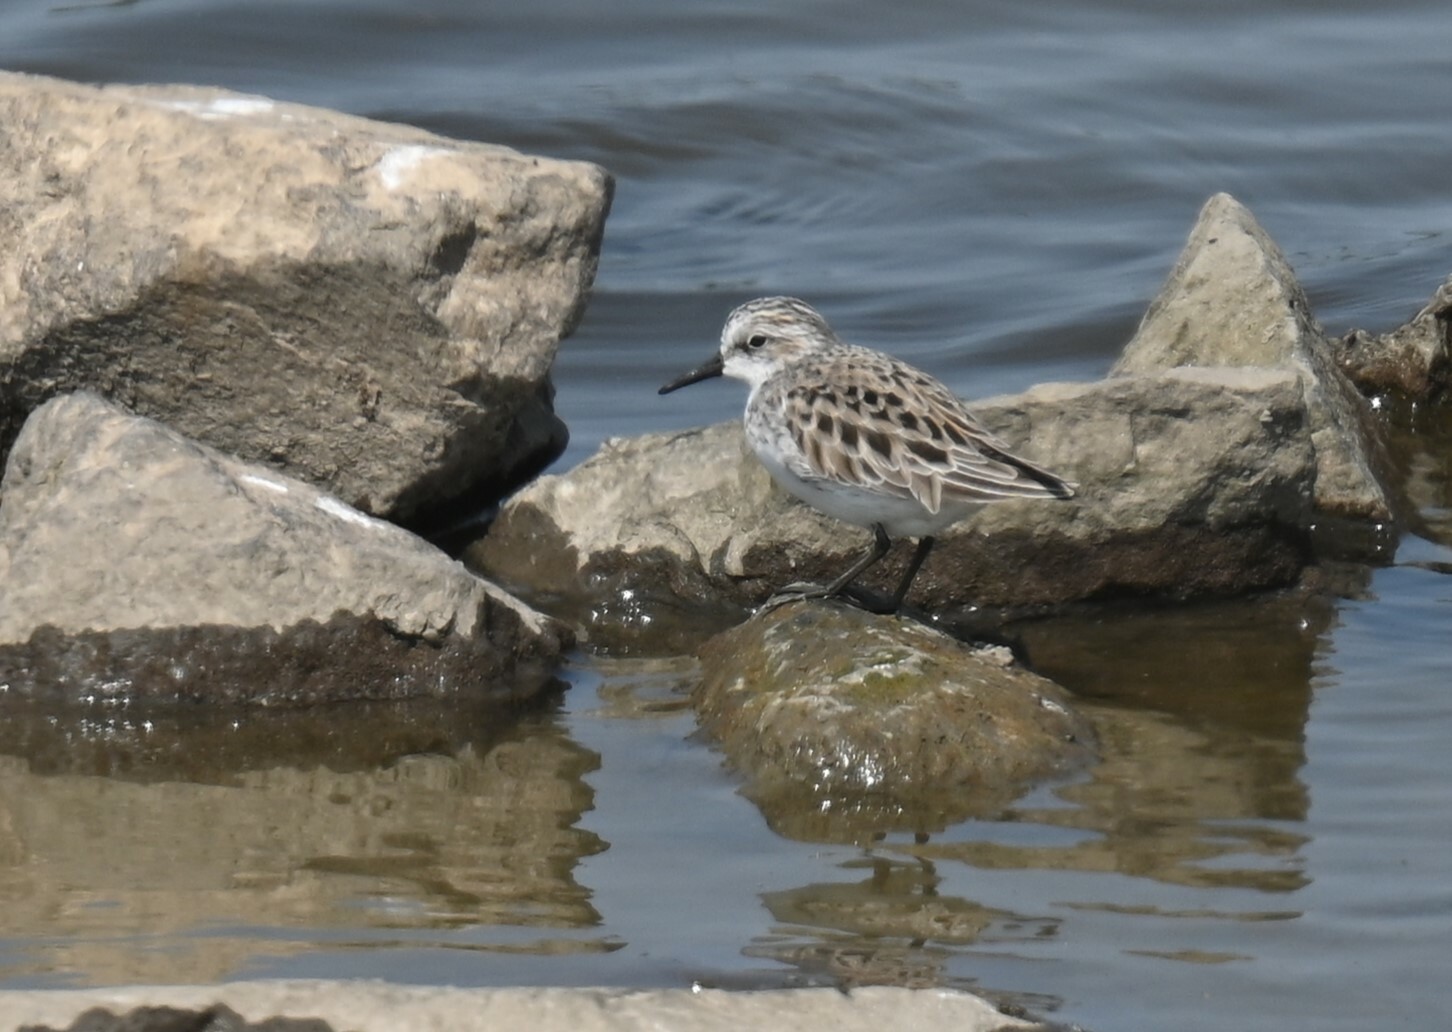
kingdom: Animalia
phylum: Chordata
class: Aves
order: Charadriiformes
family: Scolopacidae
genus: Calidris
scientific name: Calidris pusilla
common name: Semipalmated sandpiper
